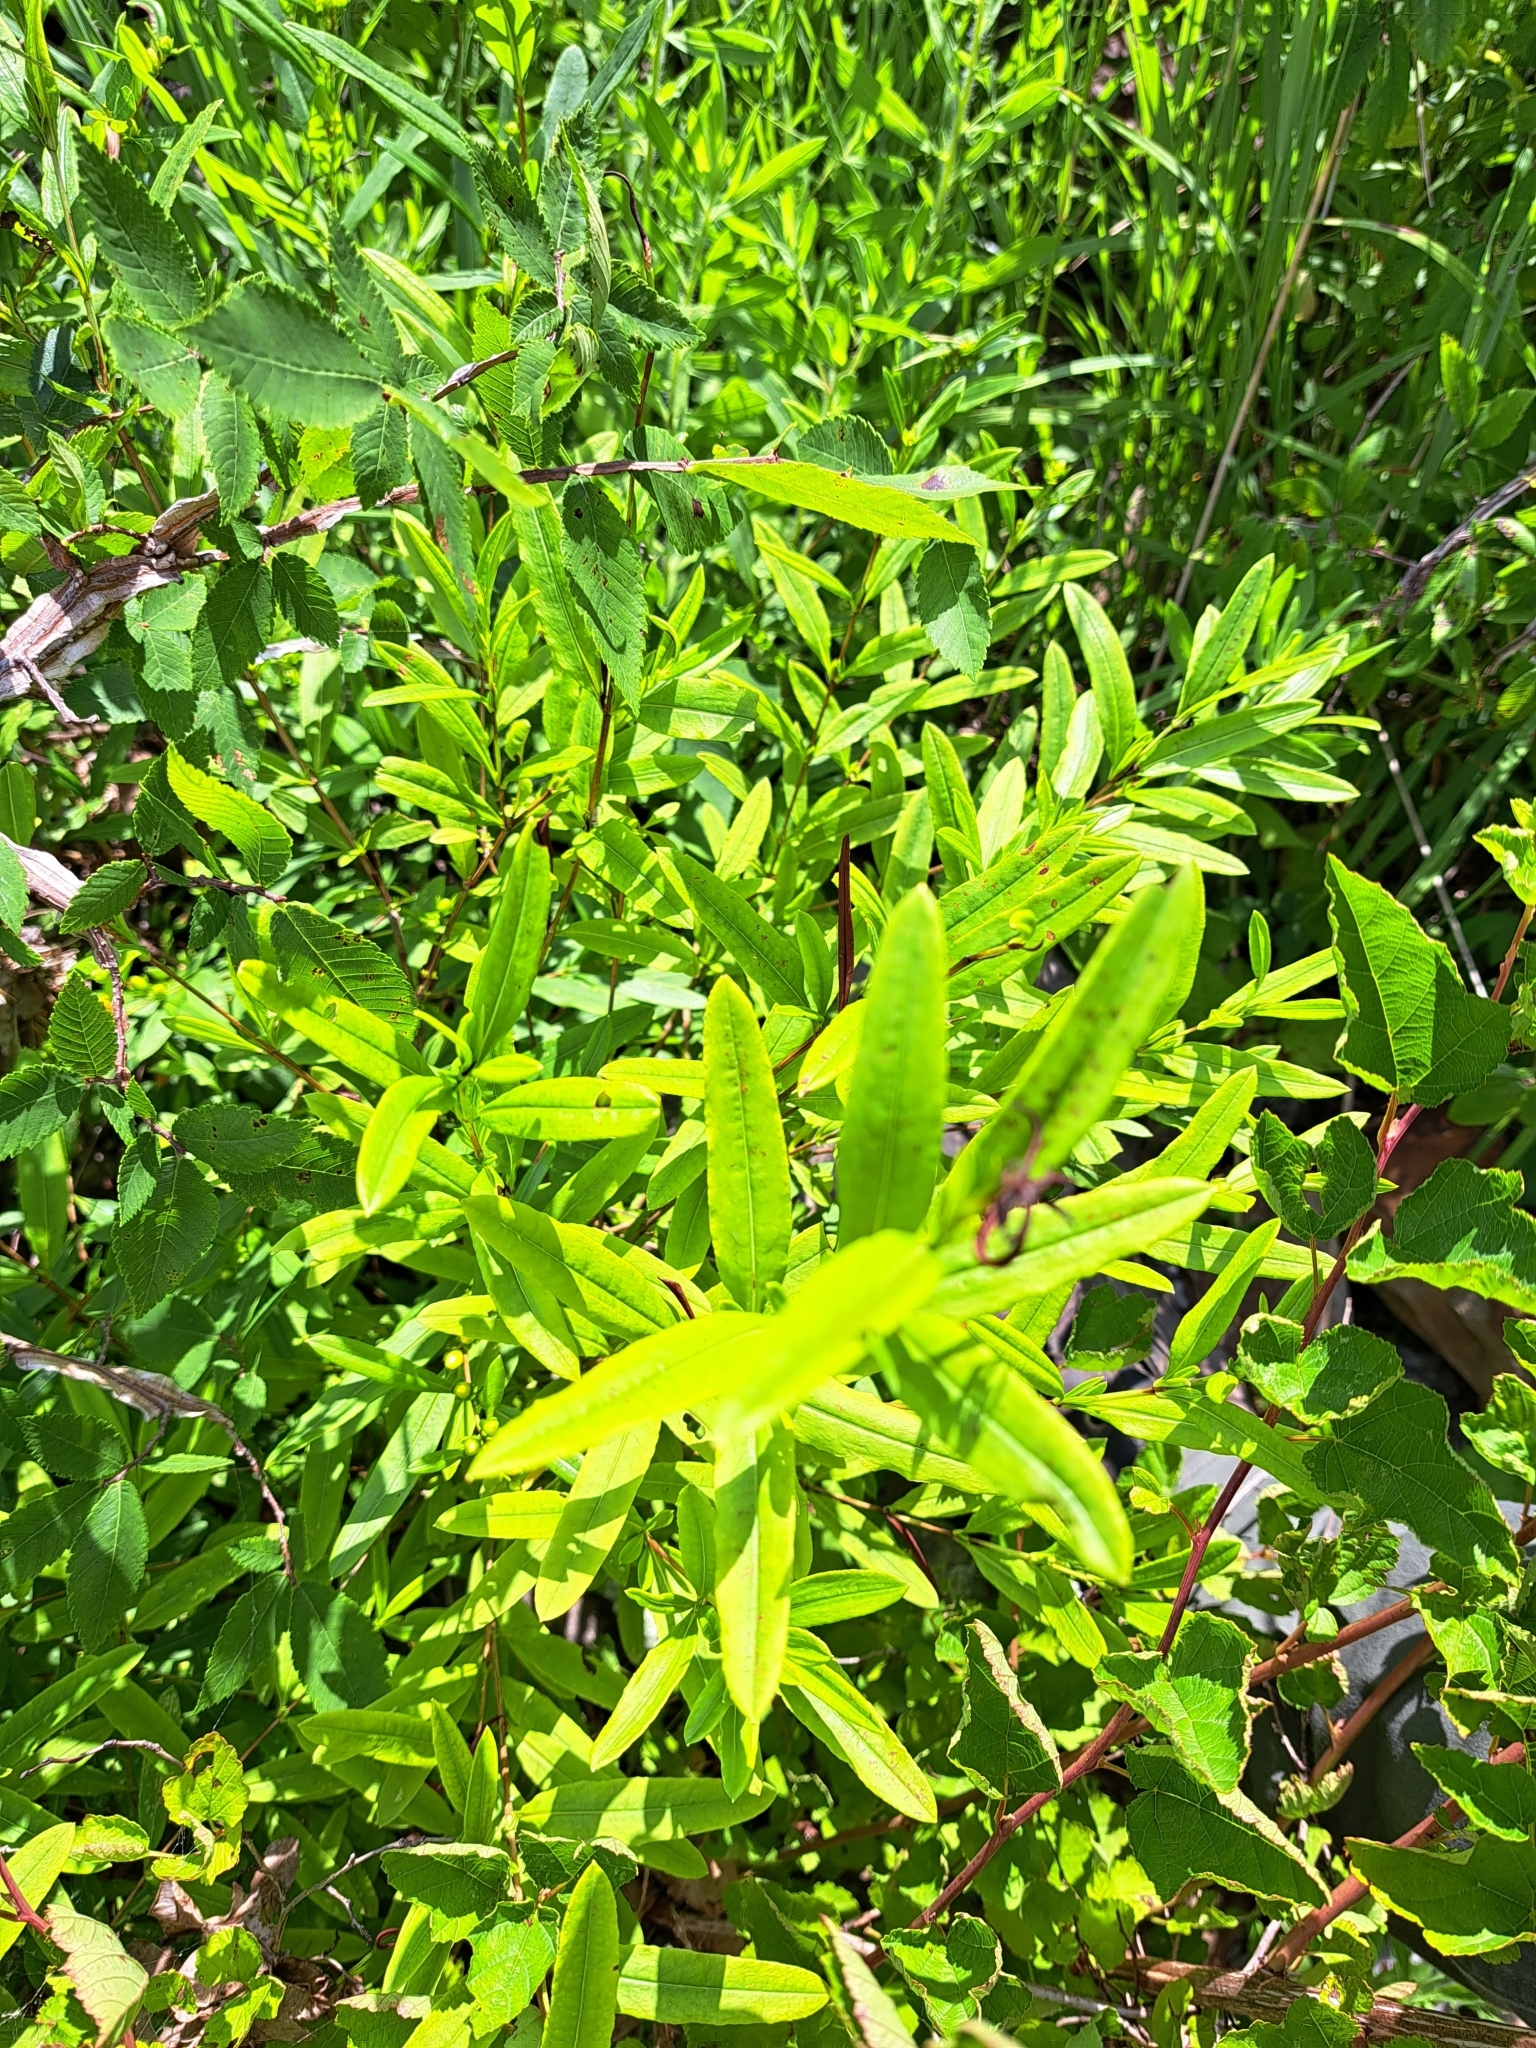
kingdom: Plantae
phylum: Tracheophyta
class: Magnoliopsida
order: Malpighiales
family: Hypericaceae
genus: Hypericum
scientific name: Hypericum prolificum
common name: Shrubby st. john's-wort
